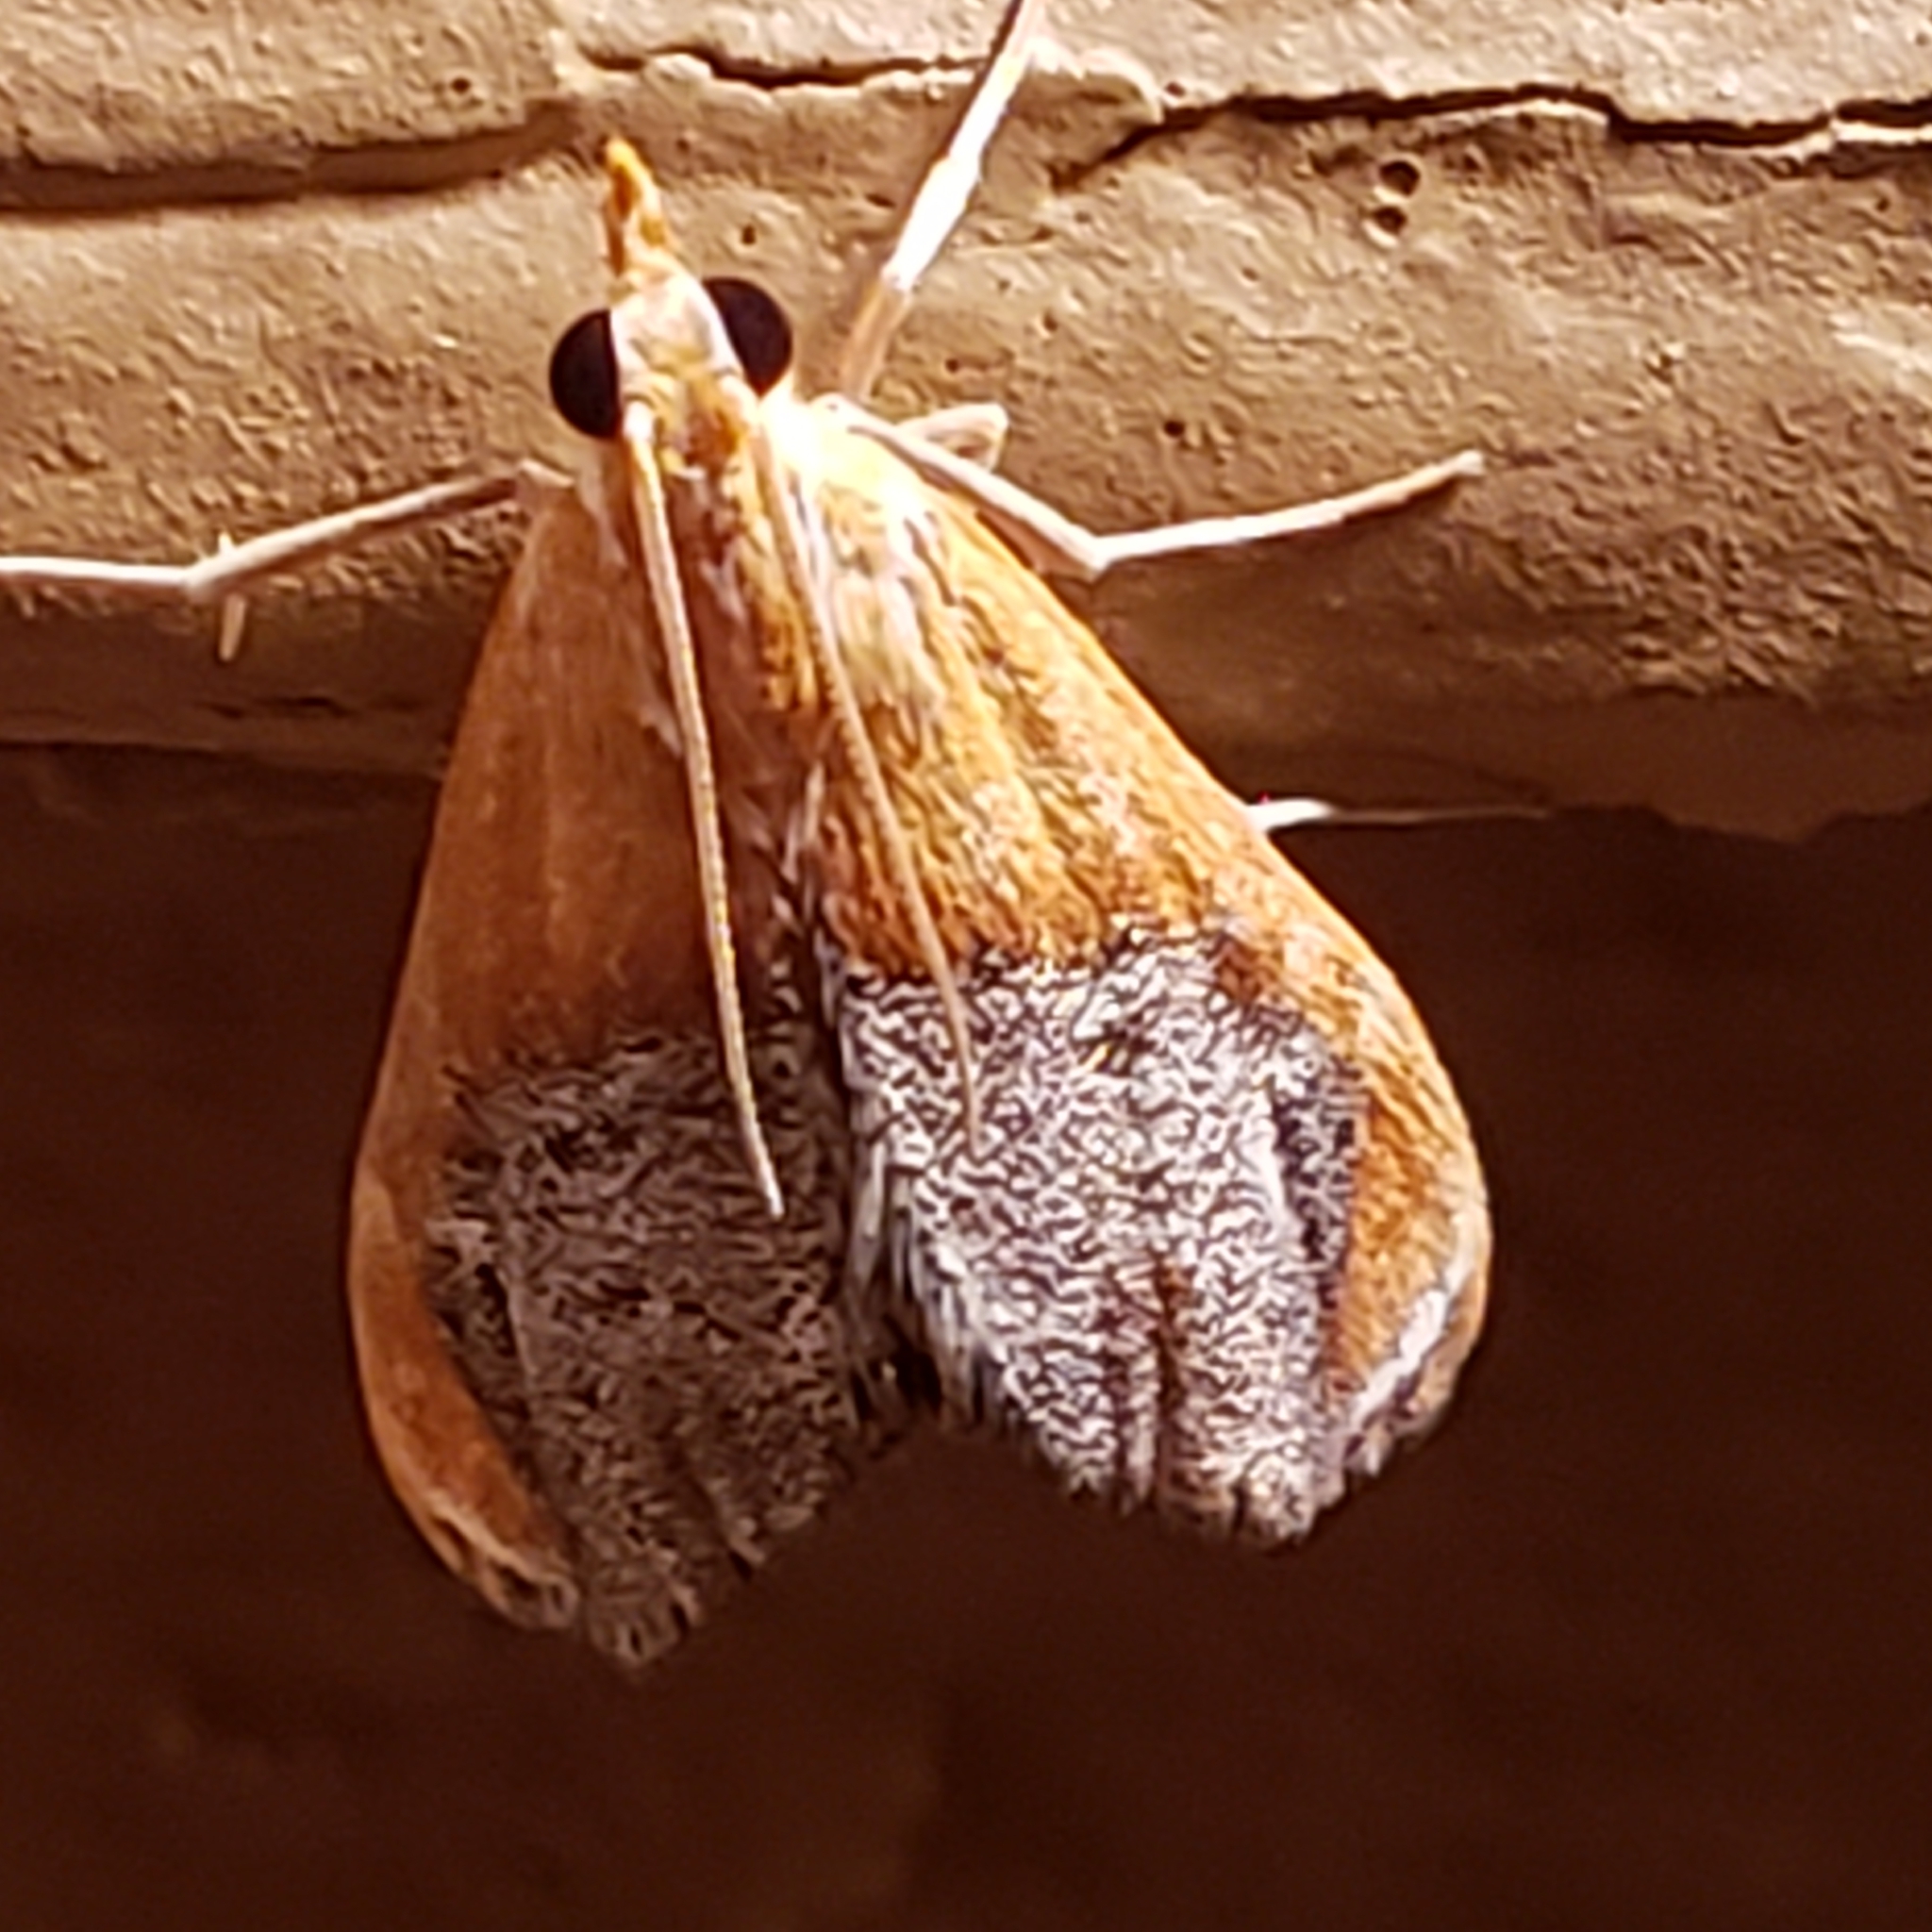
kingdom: Animalia
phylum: Arthropoda
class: Insecta
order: Lepidoptera
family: Crambidae
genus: Chalcoela
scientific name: Chalcoela iphitalis
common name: Sooty-winged chalcoela moth
